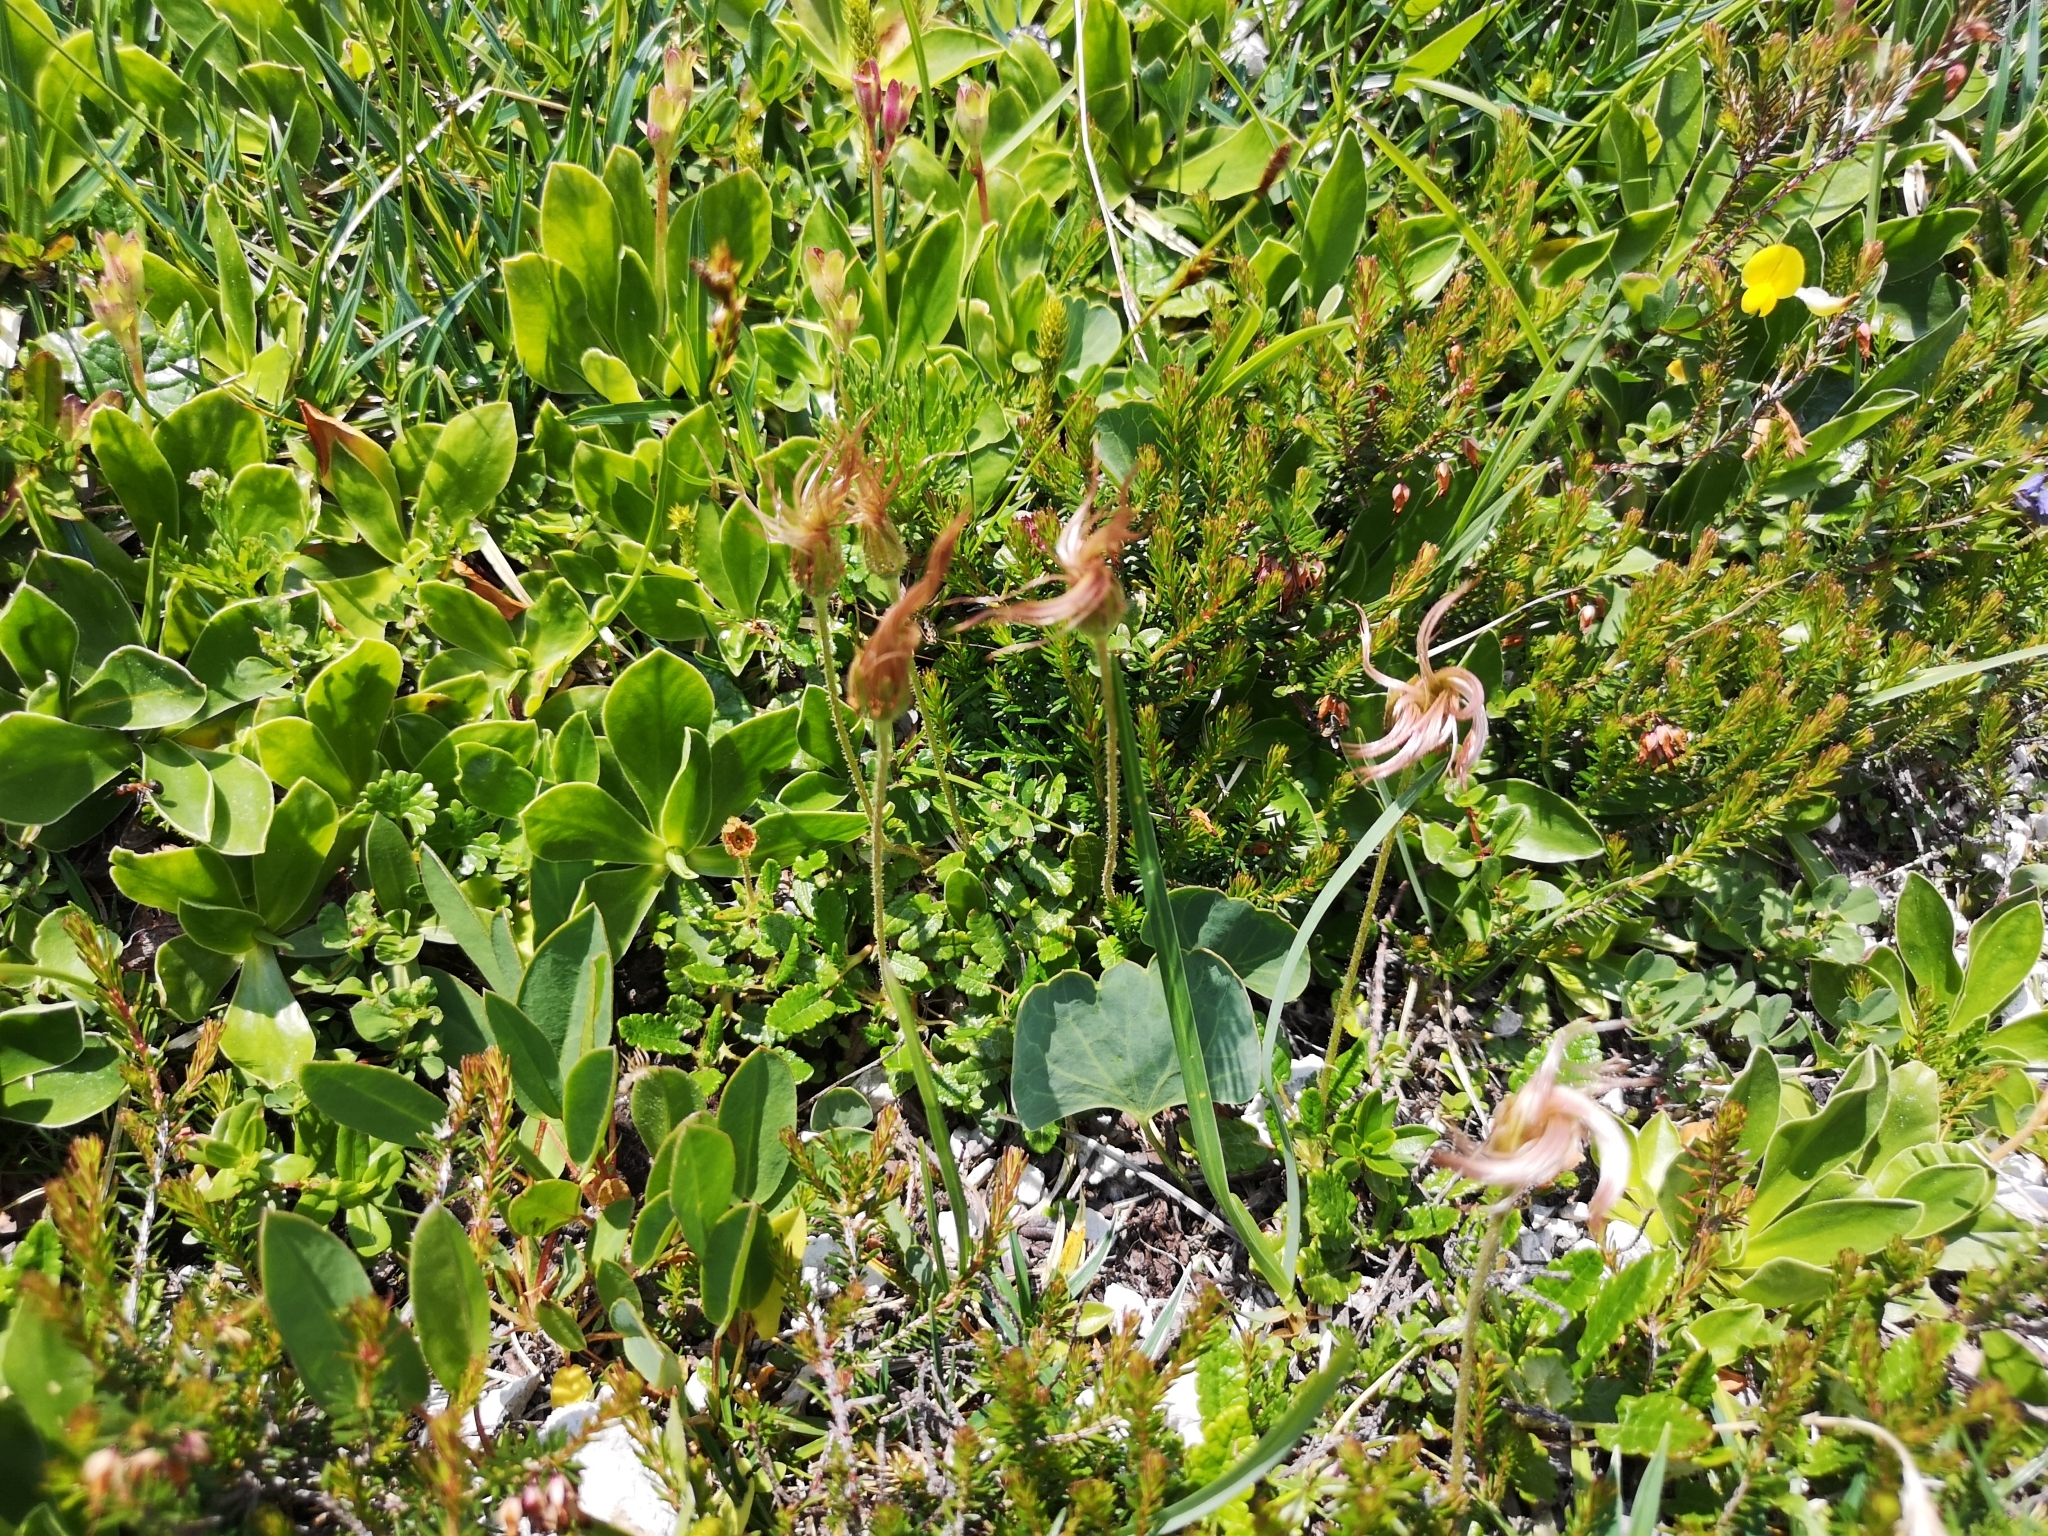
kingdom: Plantae
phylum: Tracheophyta
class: Magnoliopsida
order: Rosales
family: Rosaceae
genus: Dryas
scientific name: Dryas octopetala
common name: Eight-petal mountain-avens
